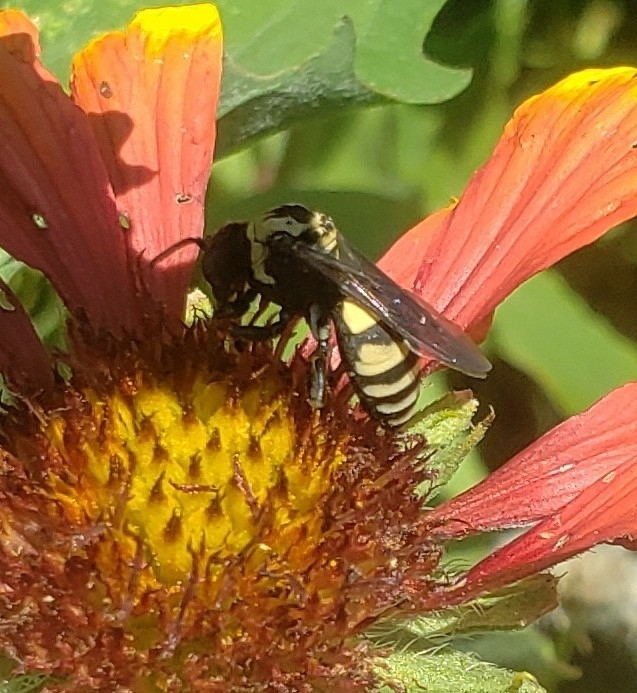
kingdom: Animalia
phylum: Arthropoda
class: Insecta
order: Hymenoptera
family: Apidae
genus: Triepeolus
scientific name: Triepeolus remigatus
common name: Squash longhorn-cuckoo
